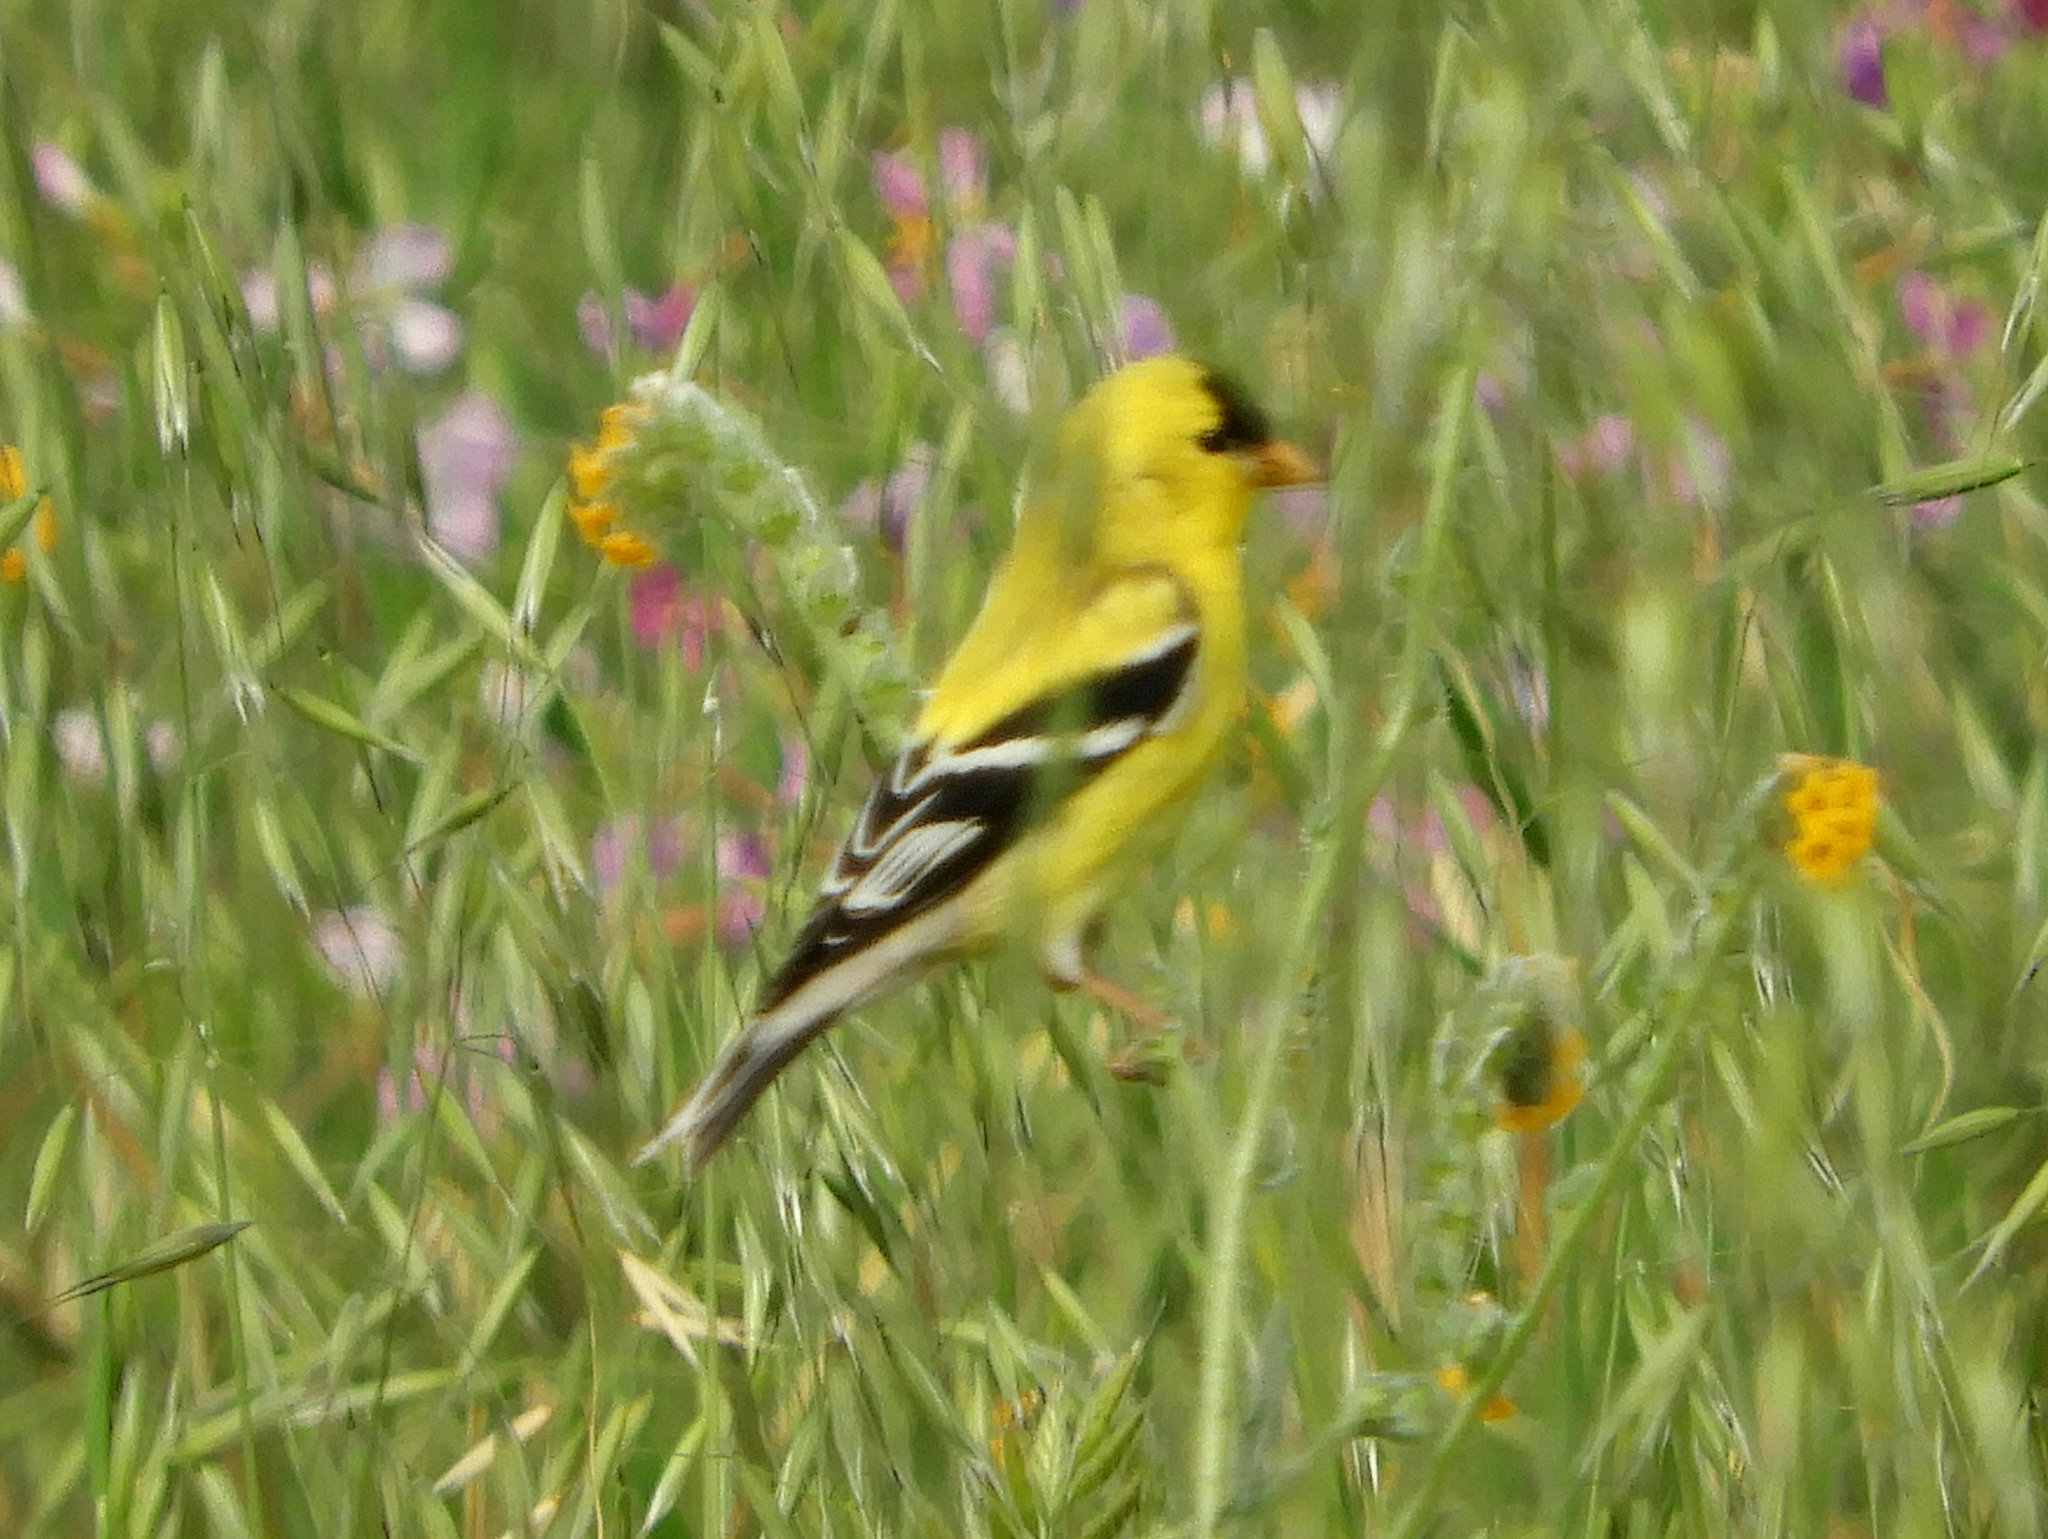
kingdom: Animalia
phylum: Chordata
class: Aves
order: Passeriformes
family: Fringillidae
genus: Spinus
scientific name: Spinus tristis
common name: American goldfinch
